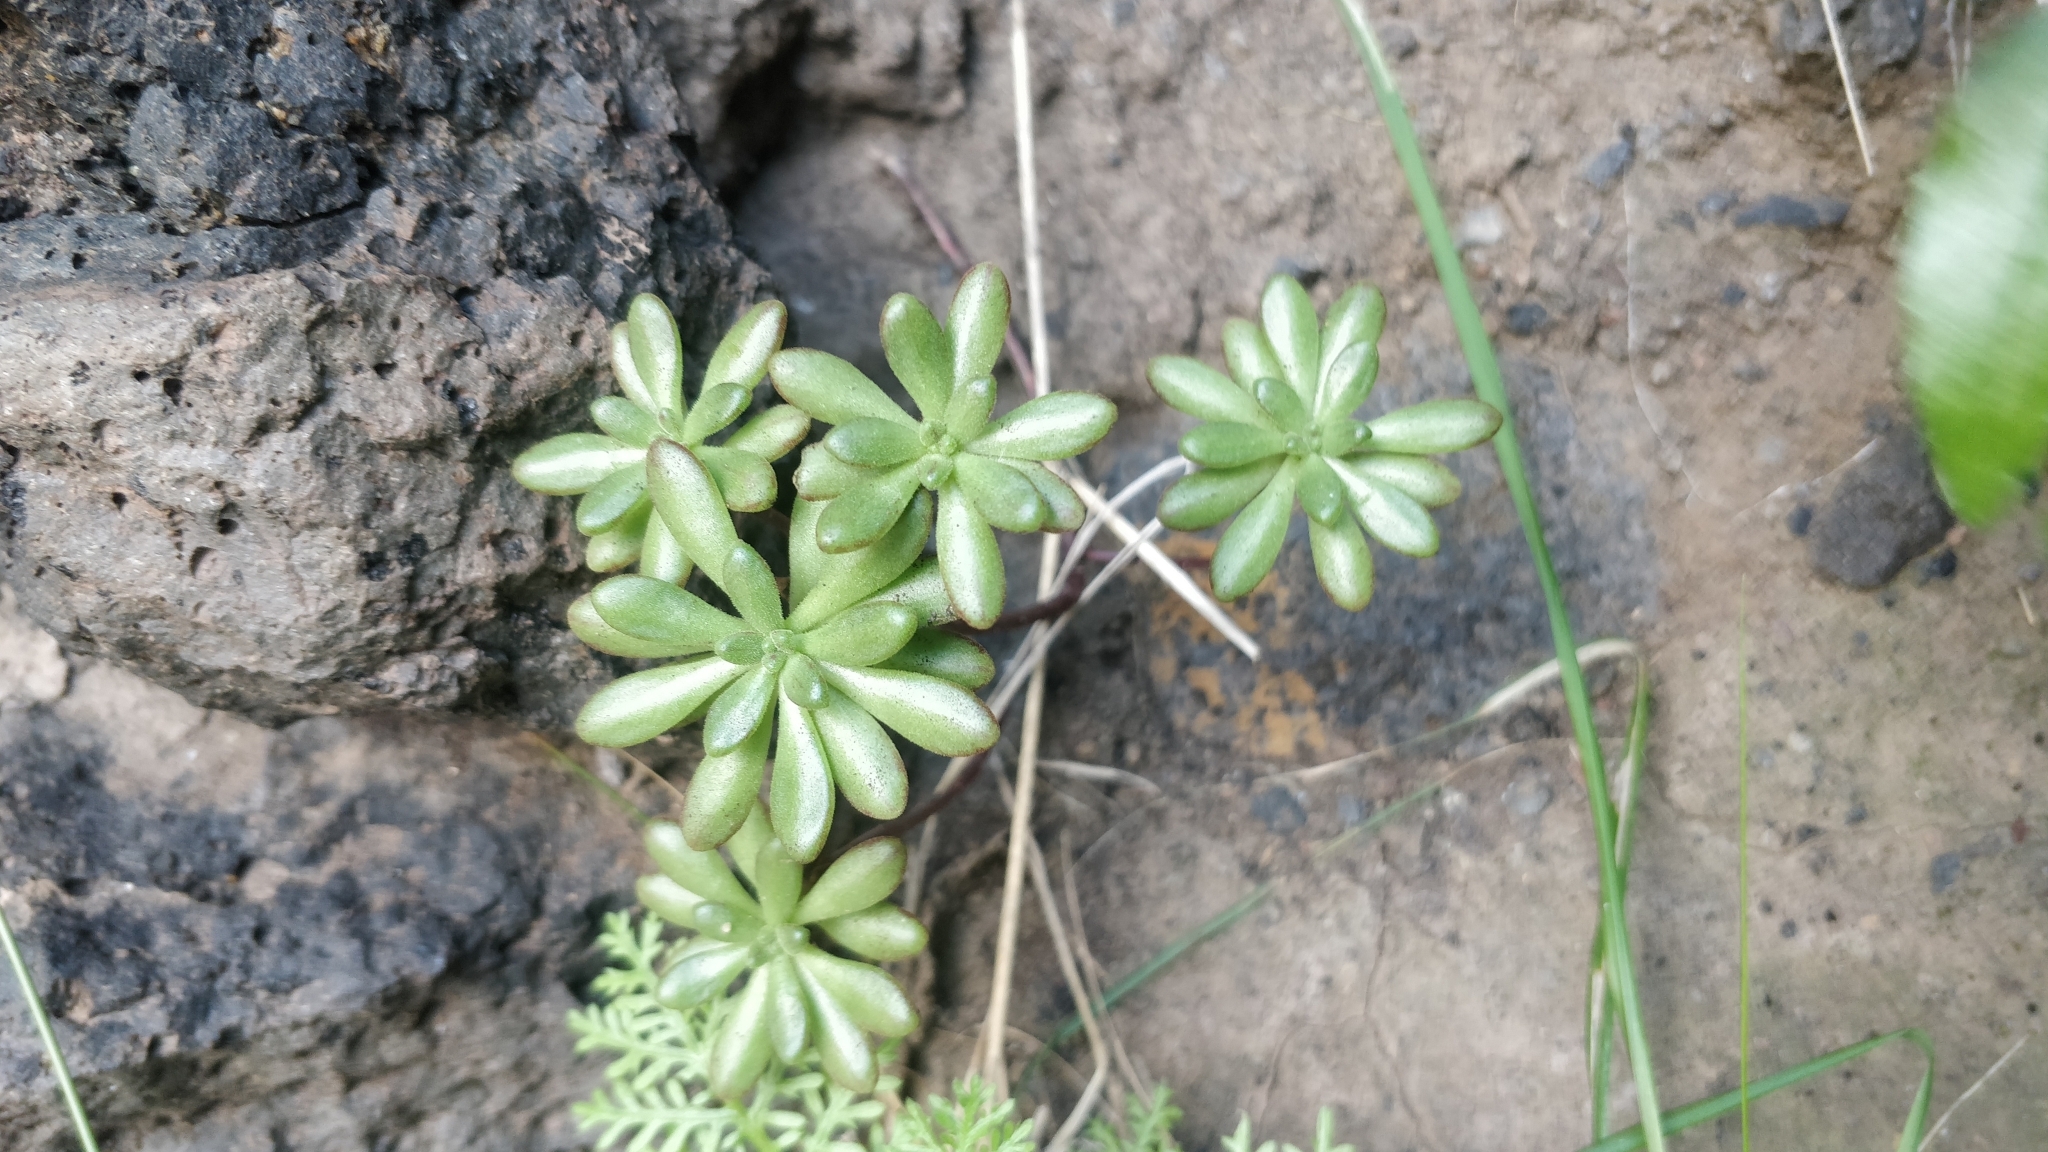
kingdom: Plantae
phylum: Tracheophyta
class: Magnoliopsida
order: Saxifragales
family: Crassulaceae
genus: Aeonium
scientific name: Aeonium sedifolium
